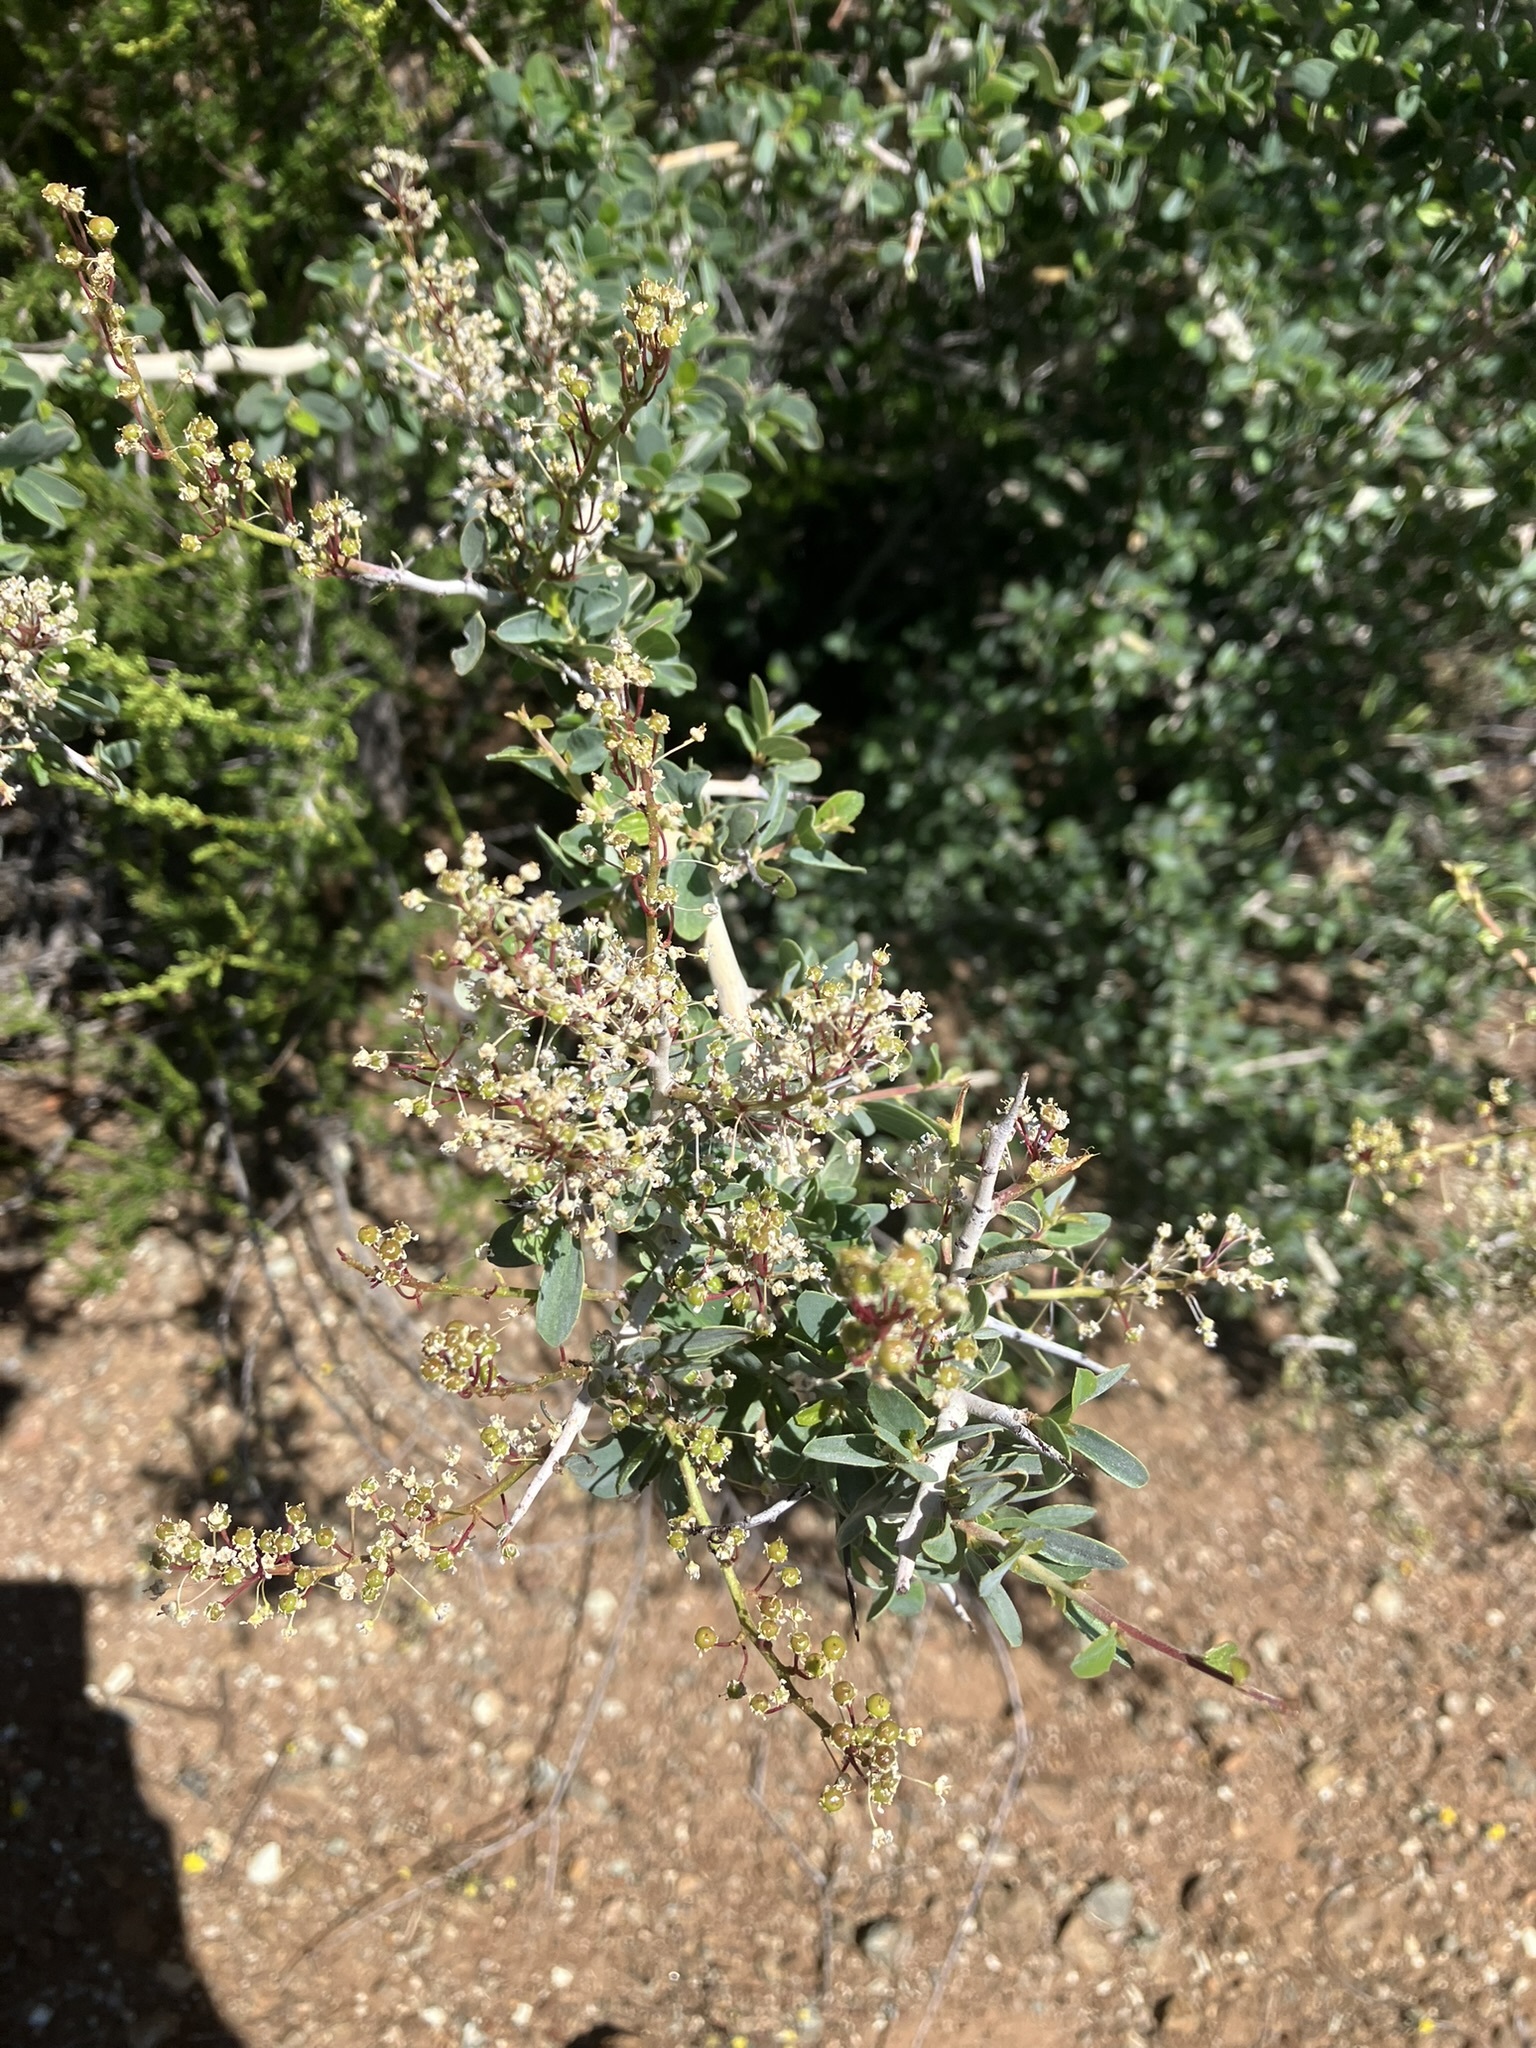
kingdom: Plantae
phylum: Tracheophyta
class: Magnoliopsida
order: Rosales
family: Rhamnaceae
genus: Ceanothus
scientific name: Ceanothus leucodermis
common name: Chaparral whitethorn
